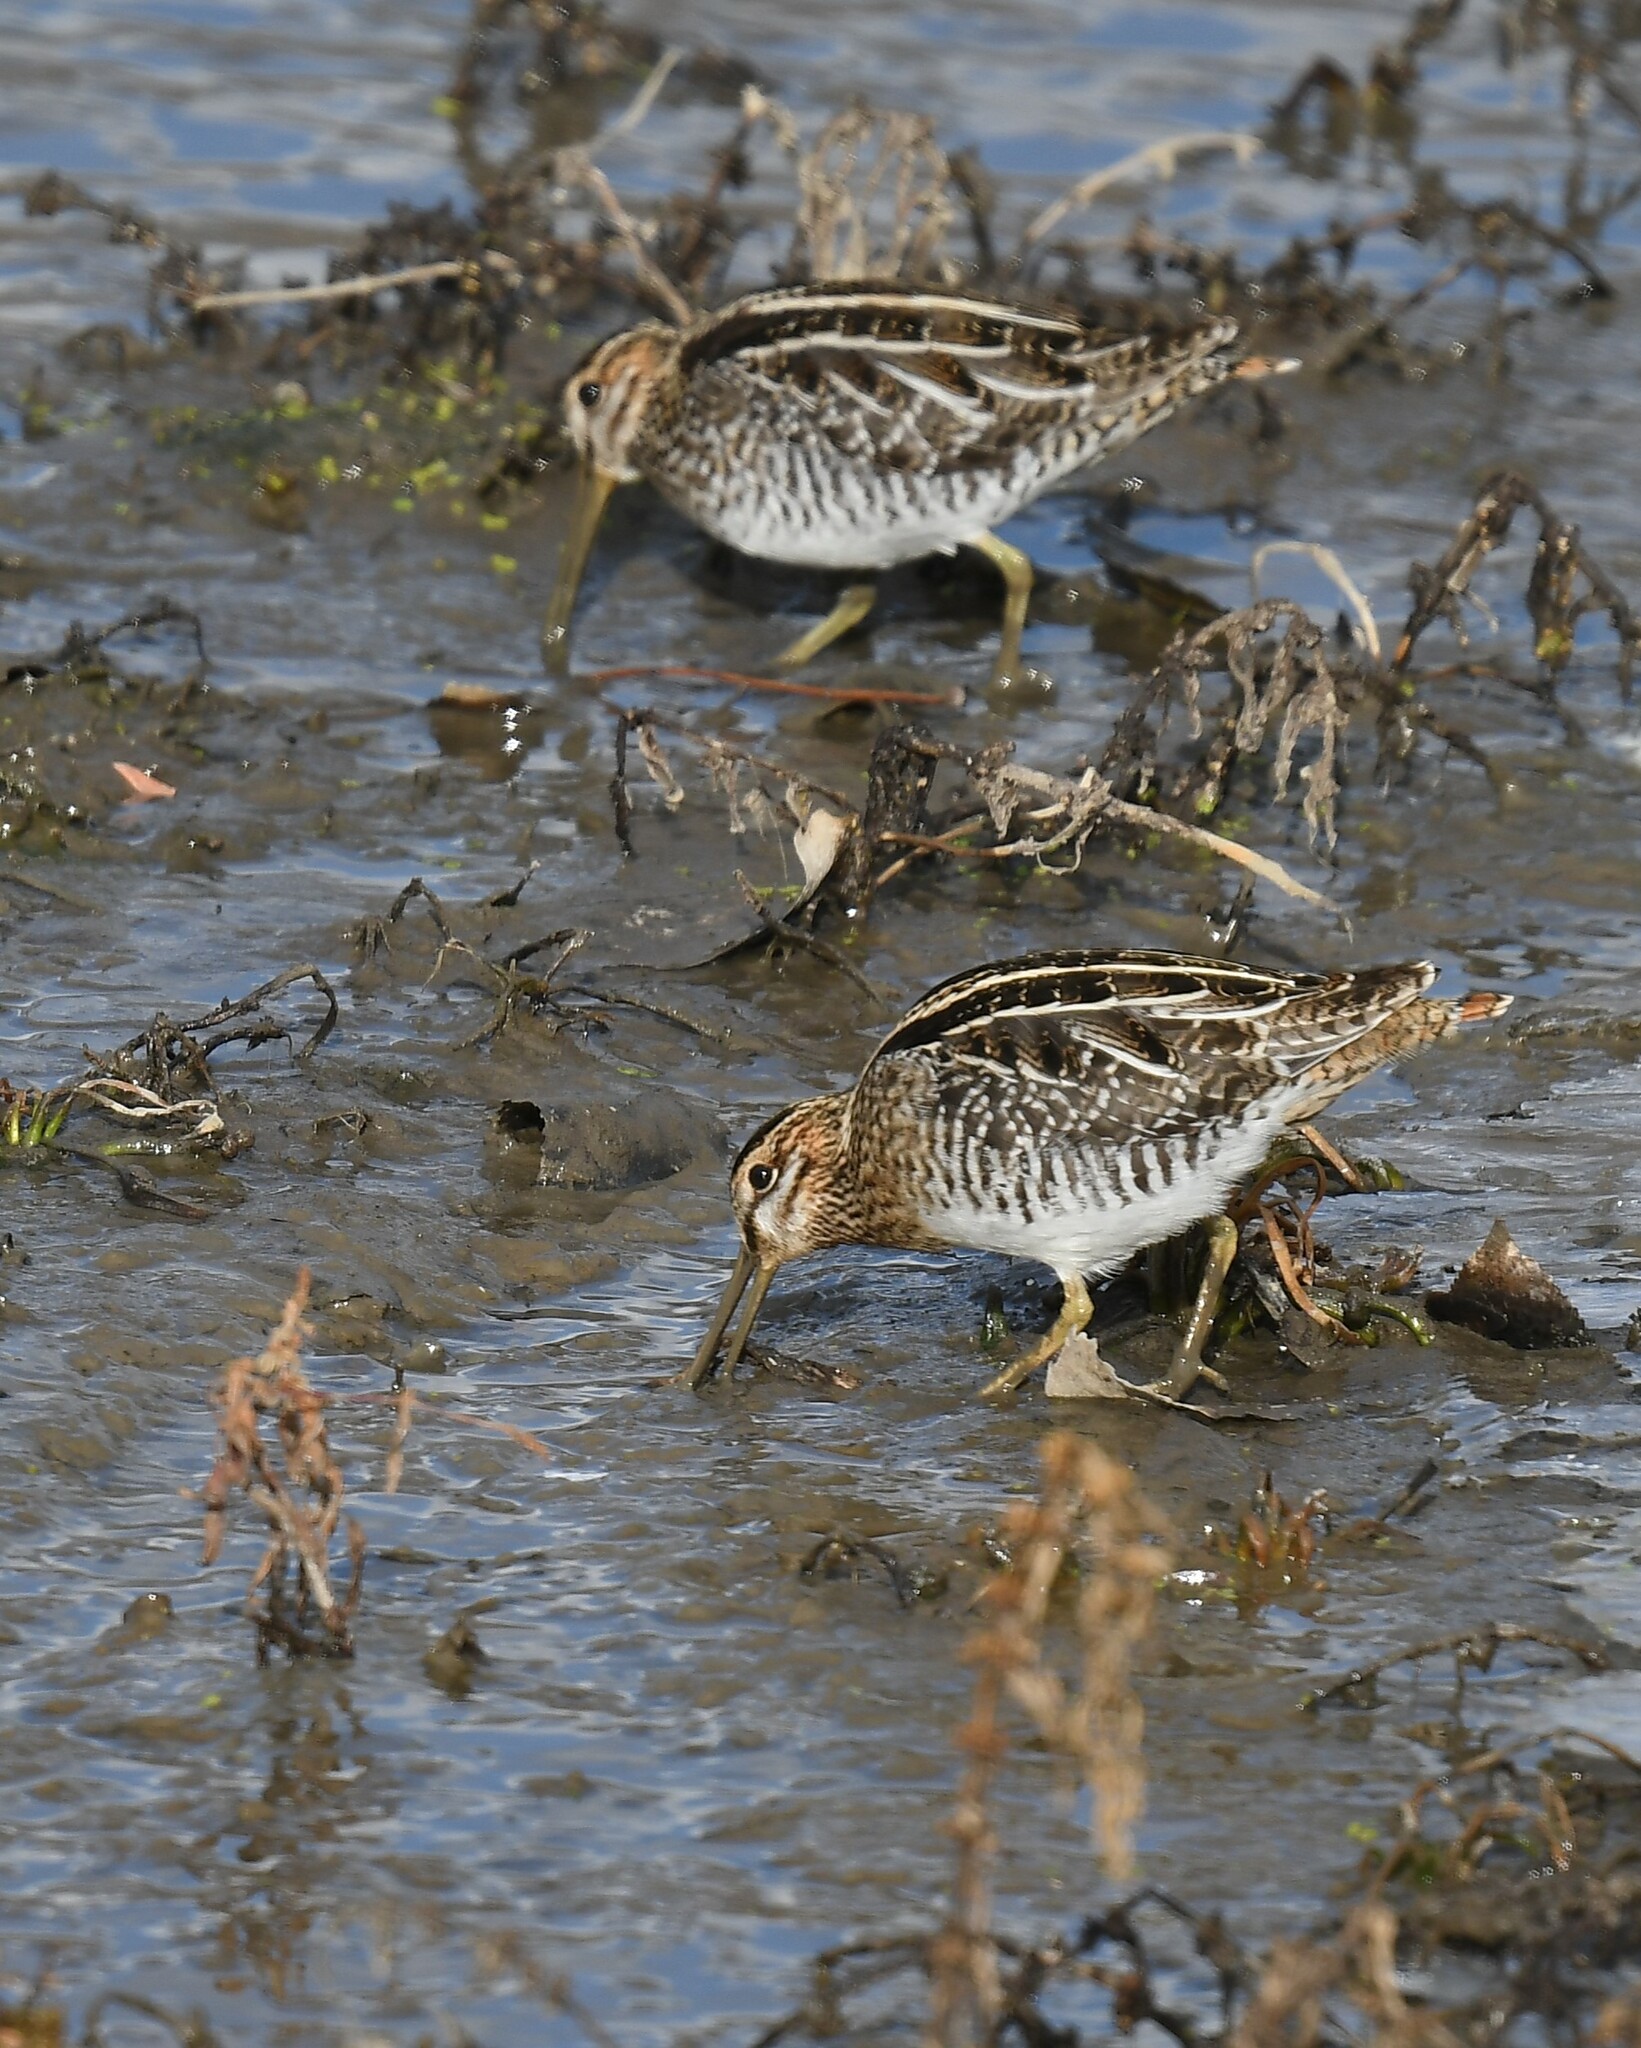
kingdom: Animalia
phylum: Chordata
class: Aves
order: Charadriiformes
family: Scolopacidae
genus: Gallinago
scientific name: Gallinago delicata
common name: Wilson's snipe
